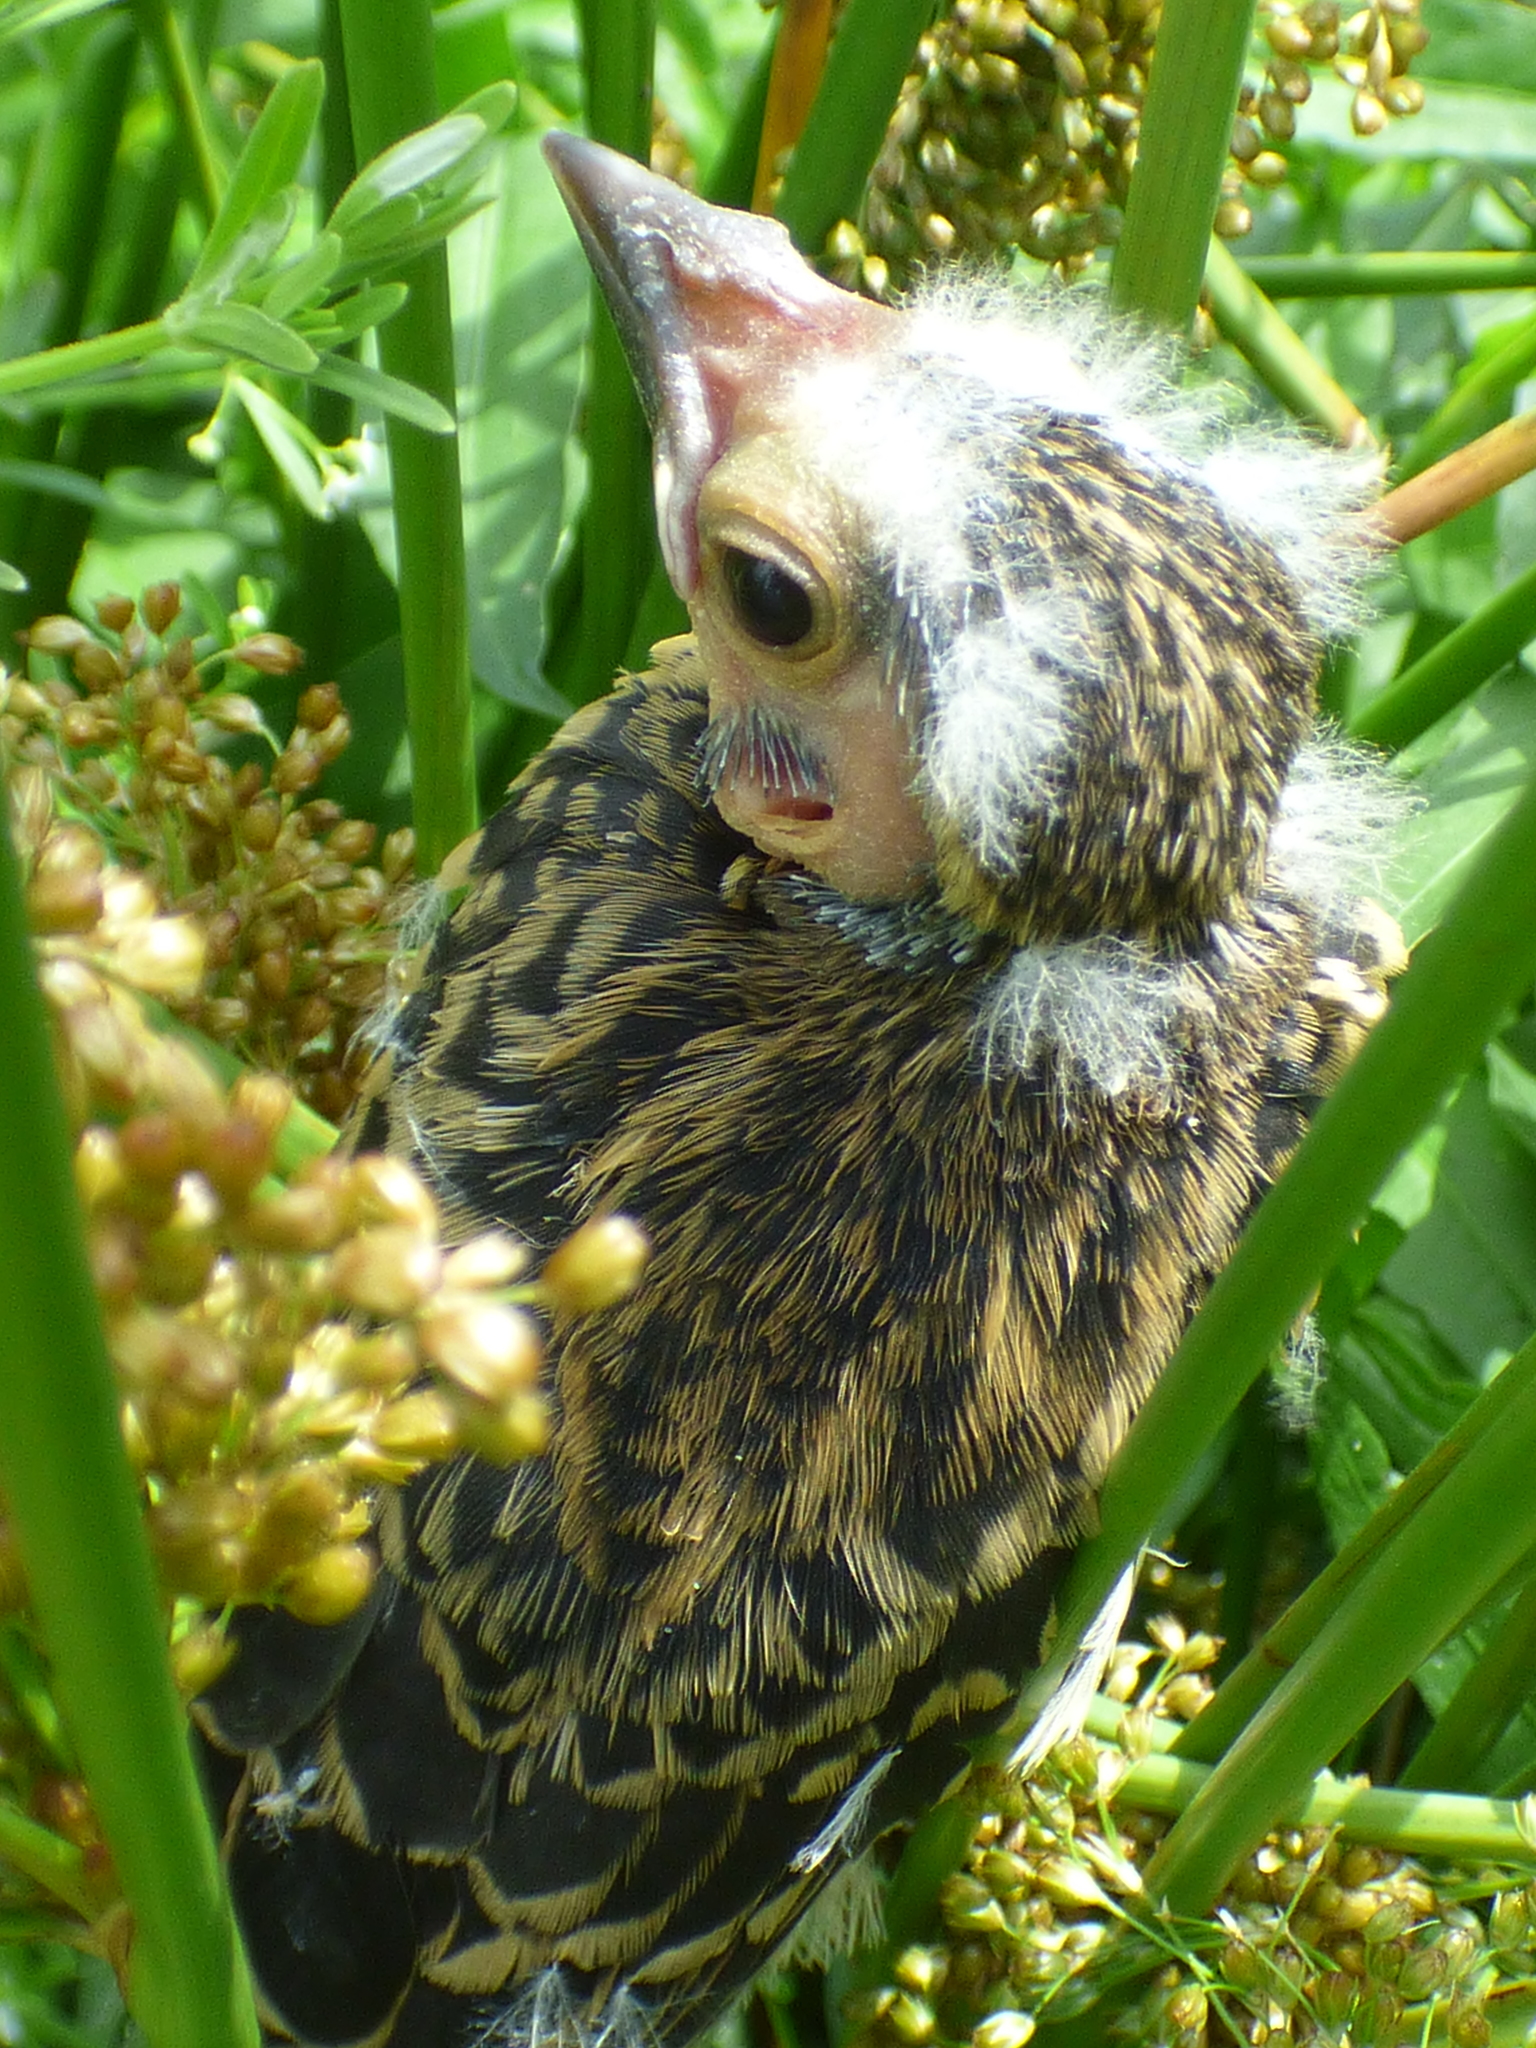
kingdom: Animalia
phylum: Chordata
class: Aves
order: Passeriformes
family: Icteridae
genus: Agelaius
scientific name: Agelaius phoeniceus
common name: Red-winged blackbird
